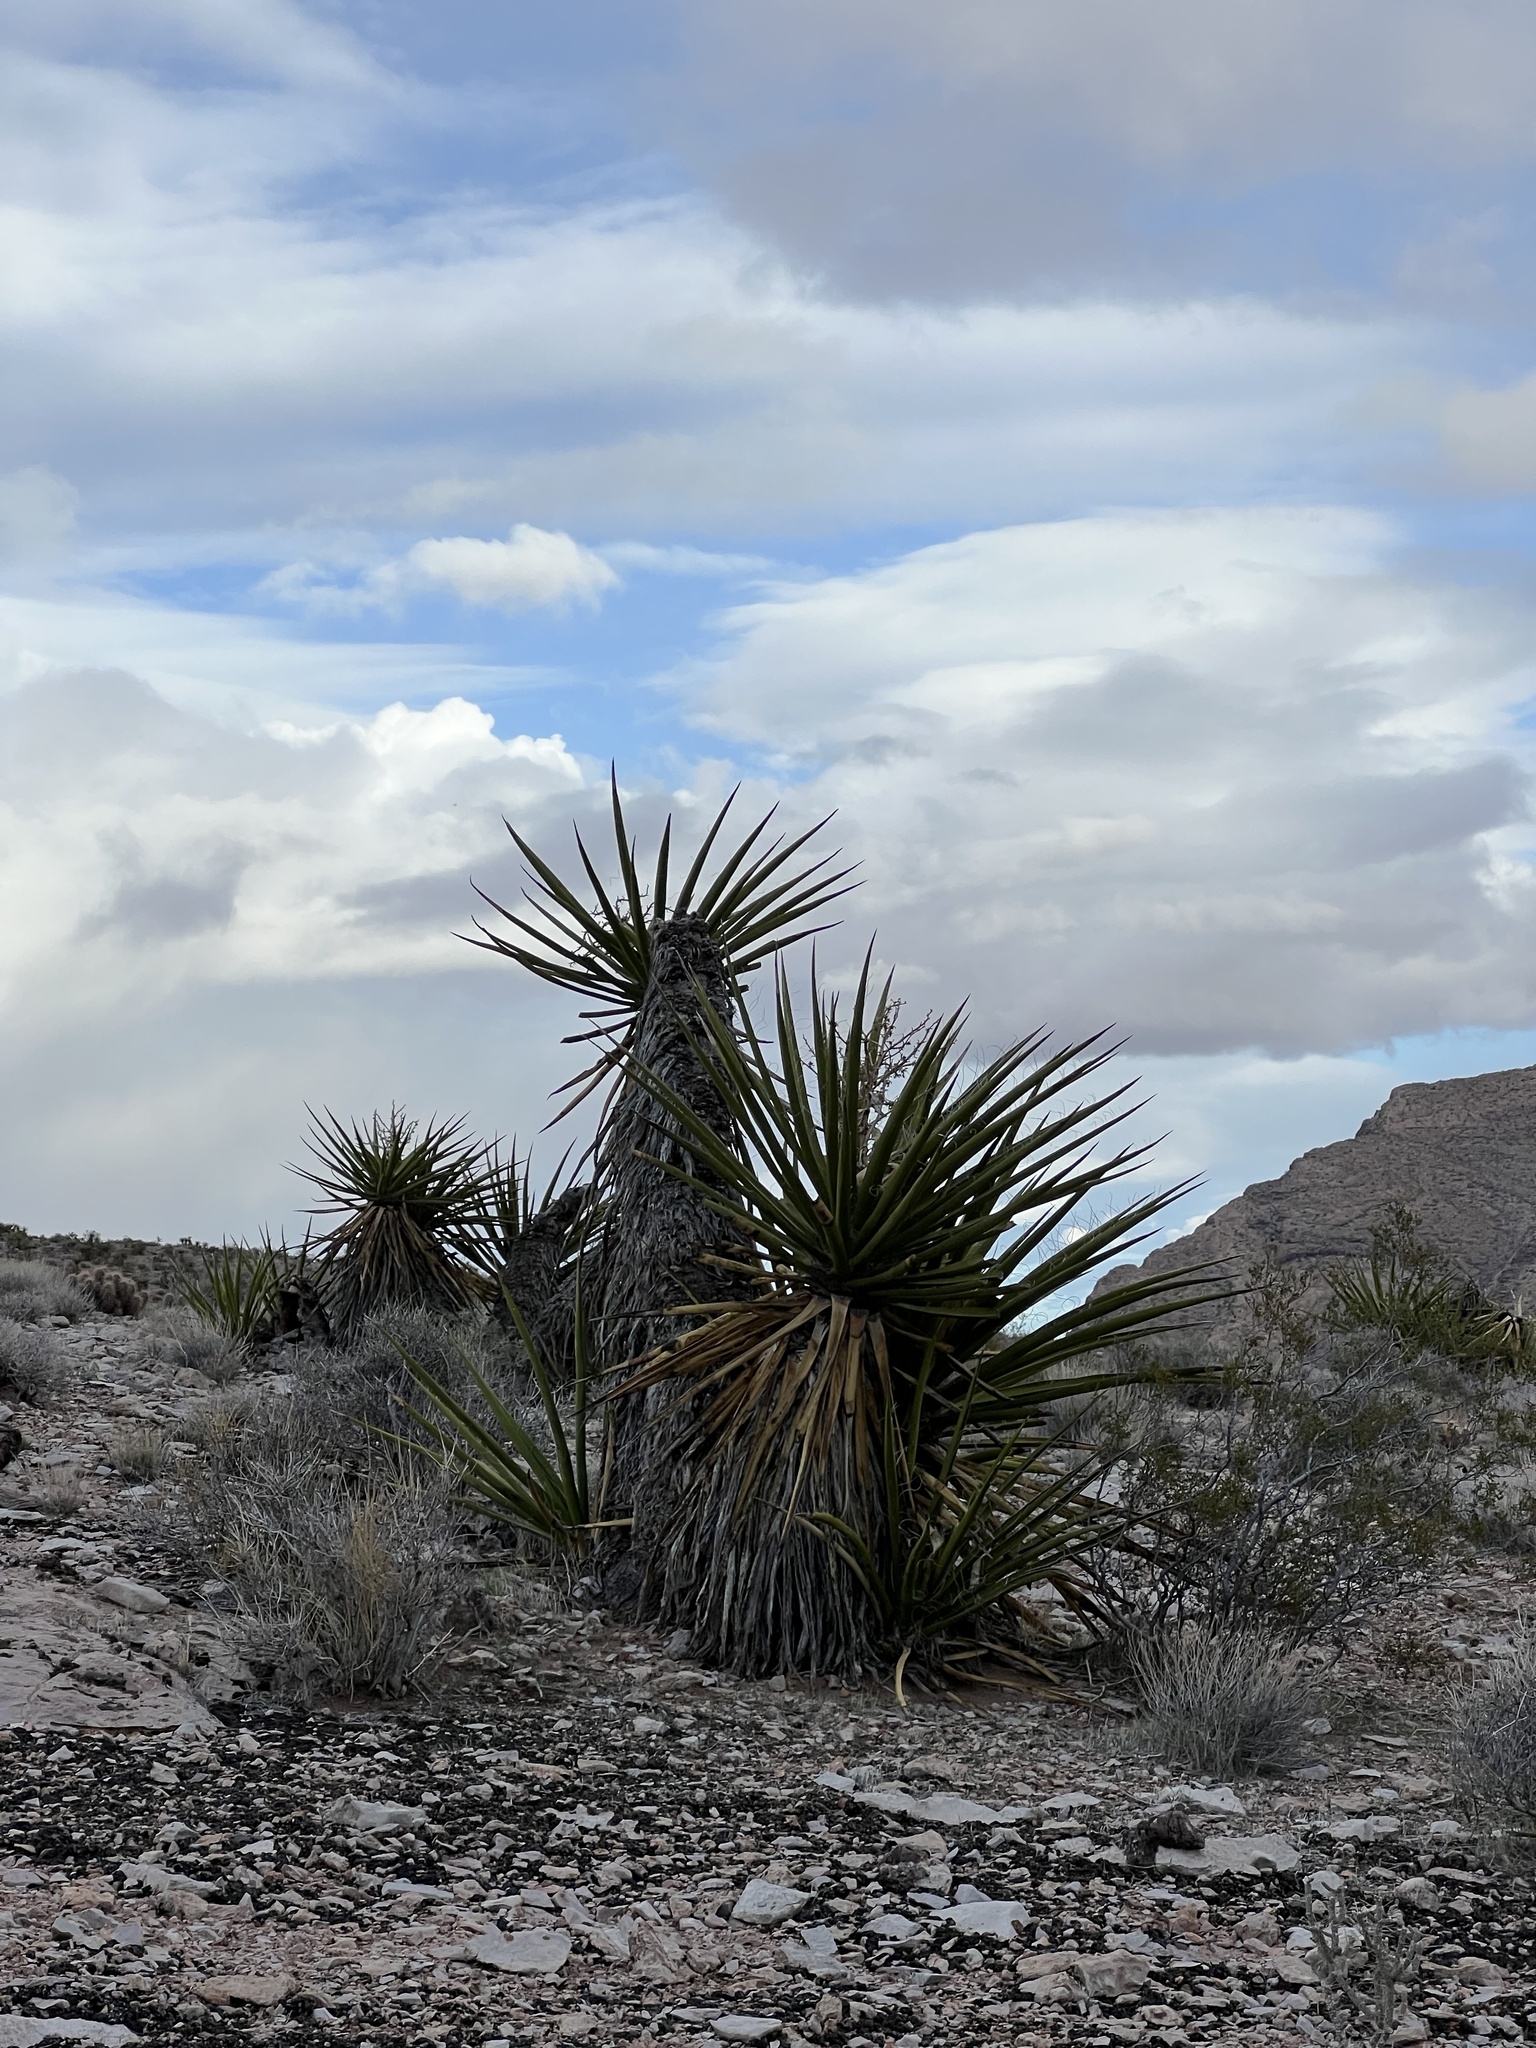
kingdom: Plantae
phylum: Tracheophyta
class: Liliopsida
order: Asparagales
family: Asparagaceae
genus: Yucca
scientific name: Yucca schidigera
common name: Mojave yucca
